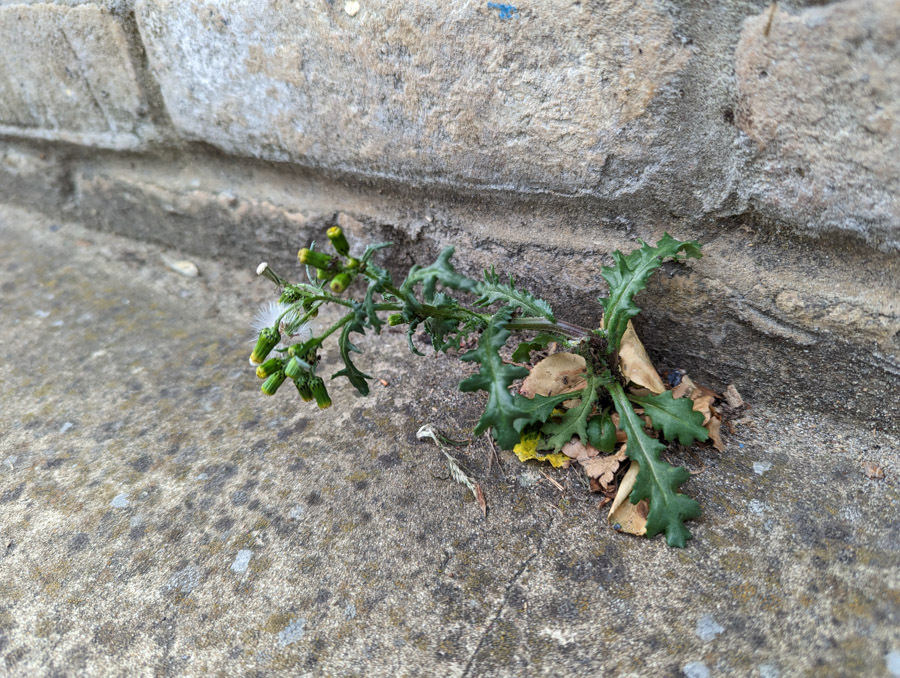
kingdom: Plantae
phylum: Tracheophyta
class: Magnoliopsida
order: Asterales
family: Asteraceae
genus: Senecio
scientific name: Senecio vulgaris
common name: Old-man-in-the-spring
